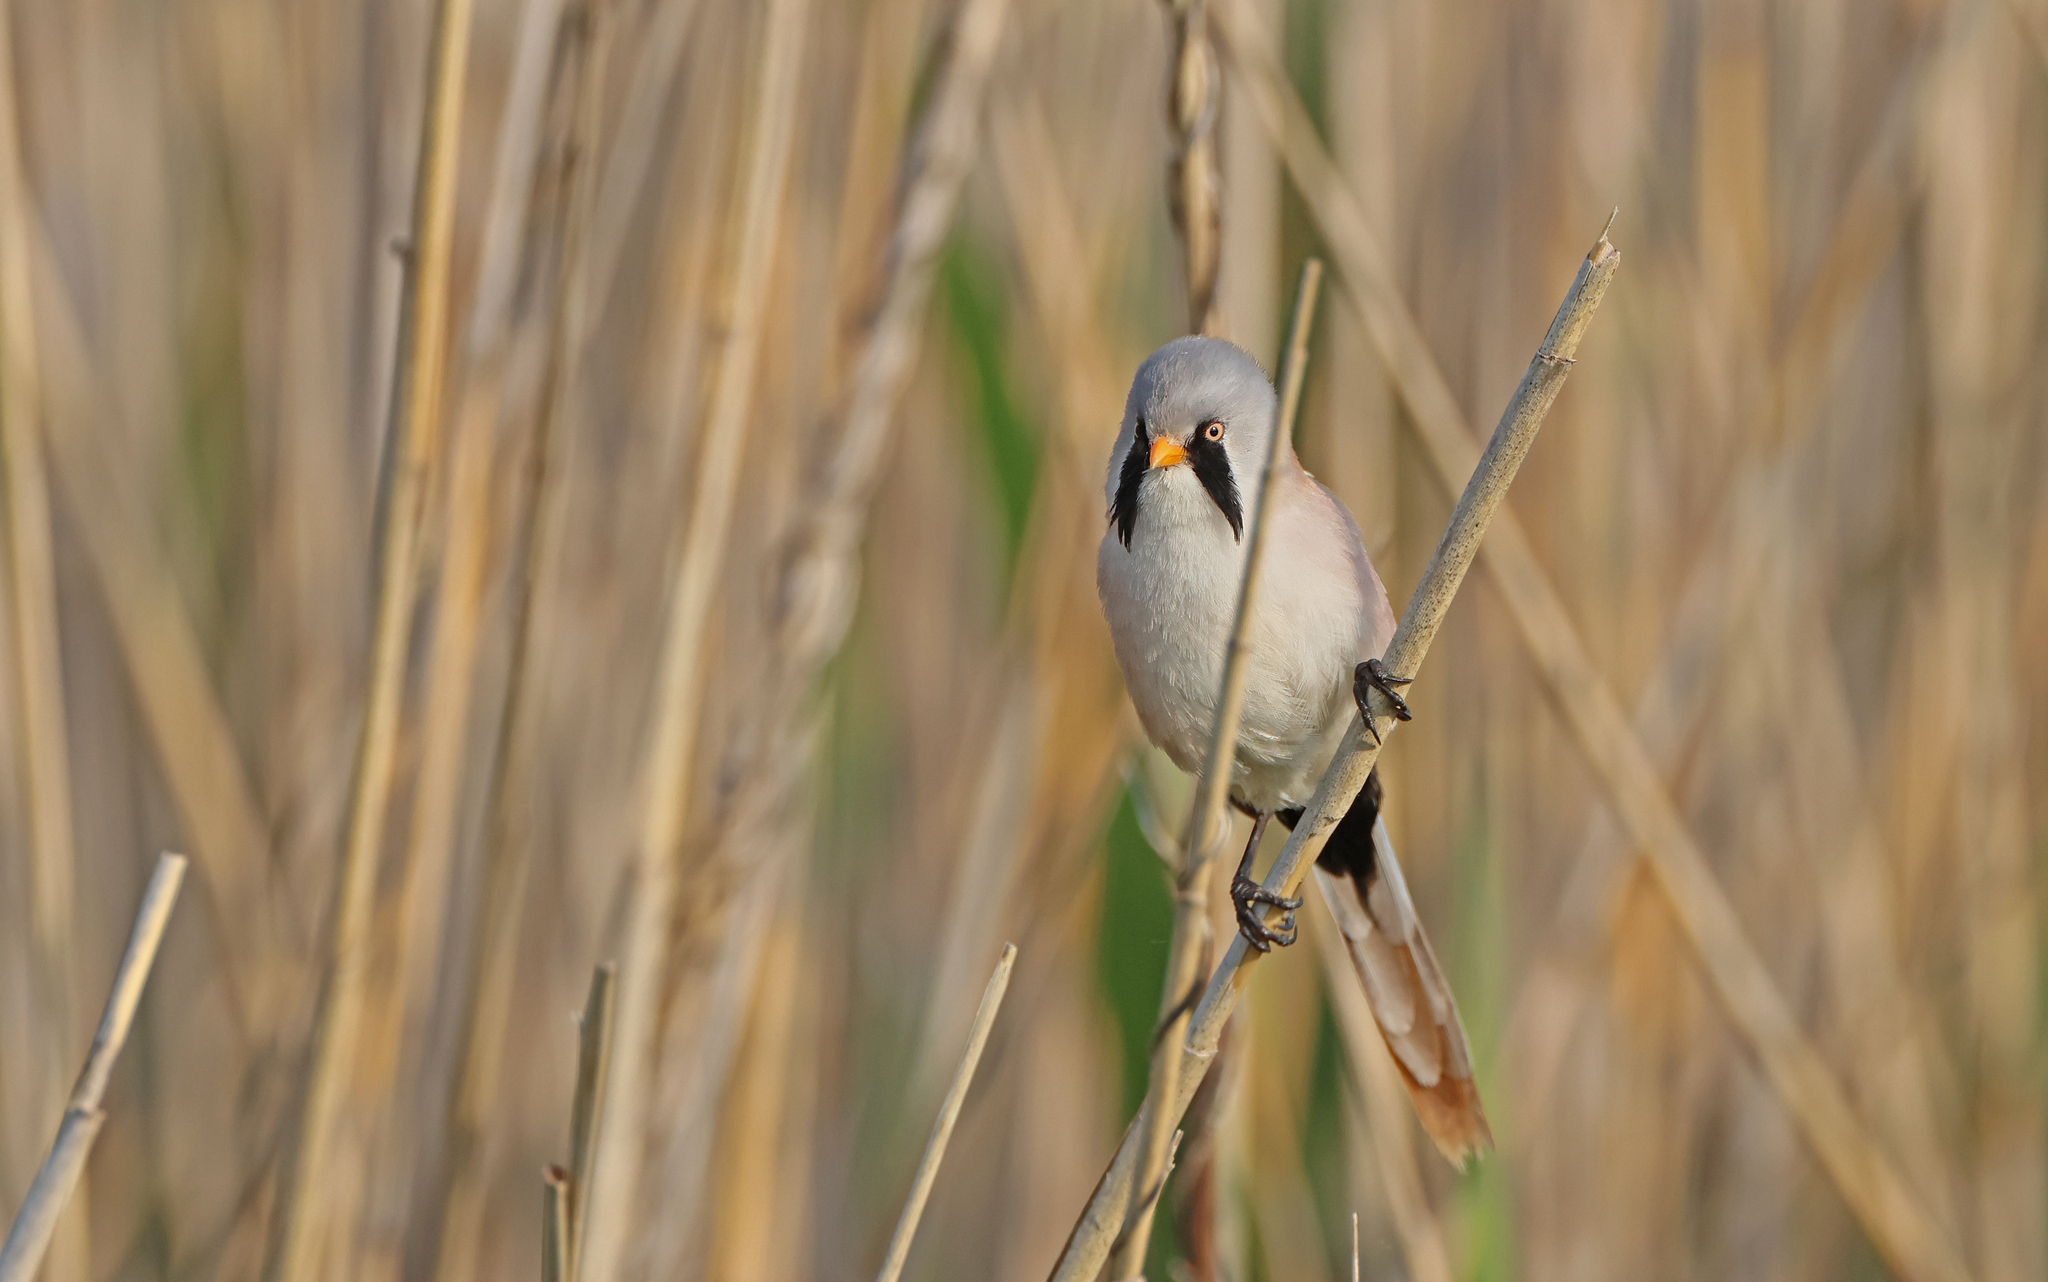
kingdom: Animalia
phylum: Chordata
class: Aves
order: Passeriformes
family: Panuridae
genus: Panurus
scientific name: Panurus biarmicus
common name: Bearded reedling
